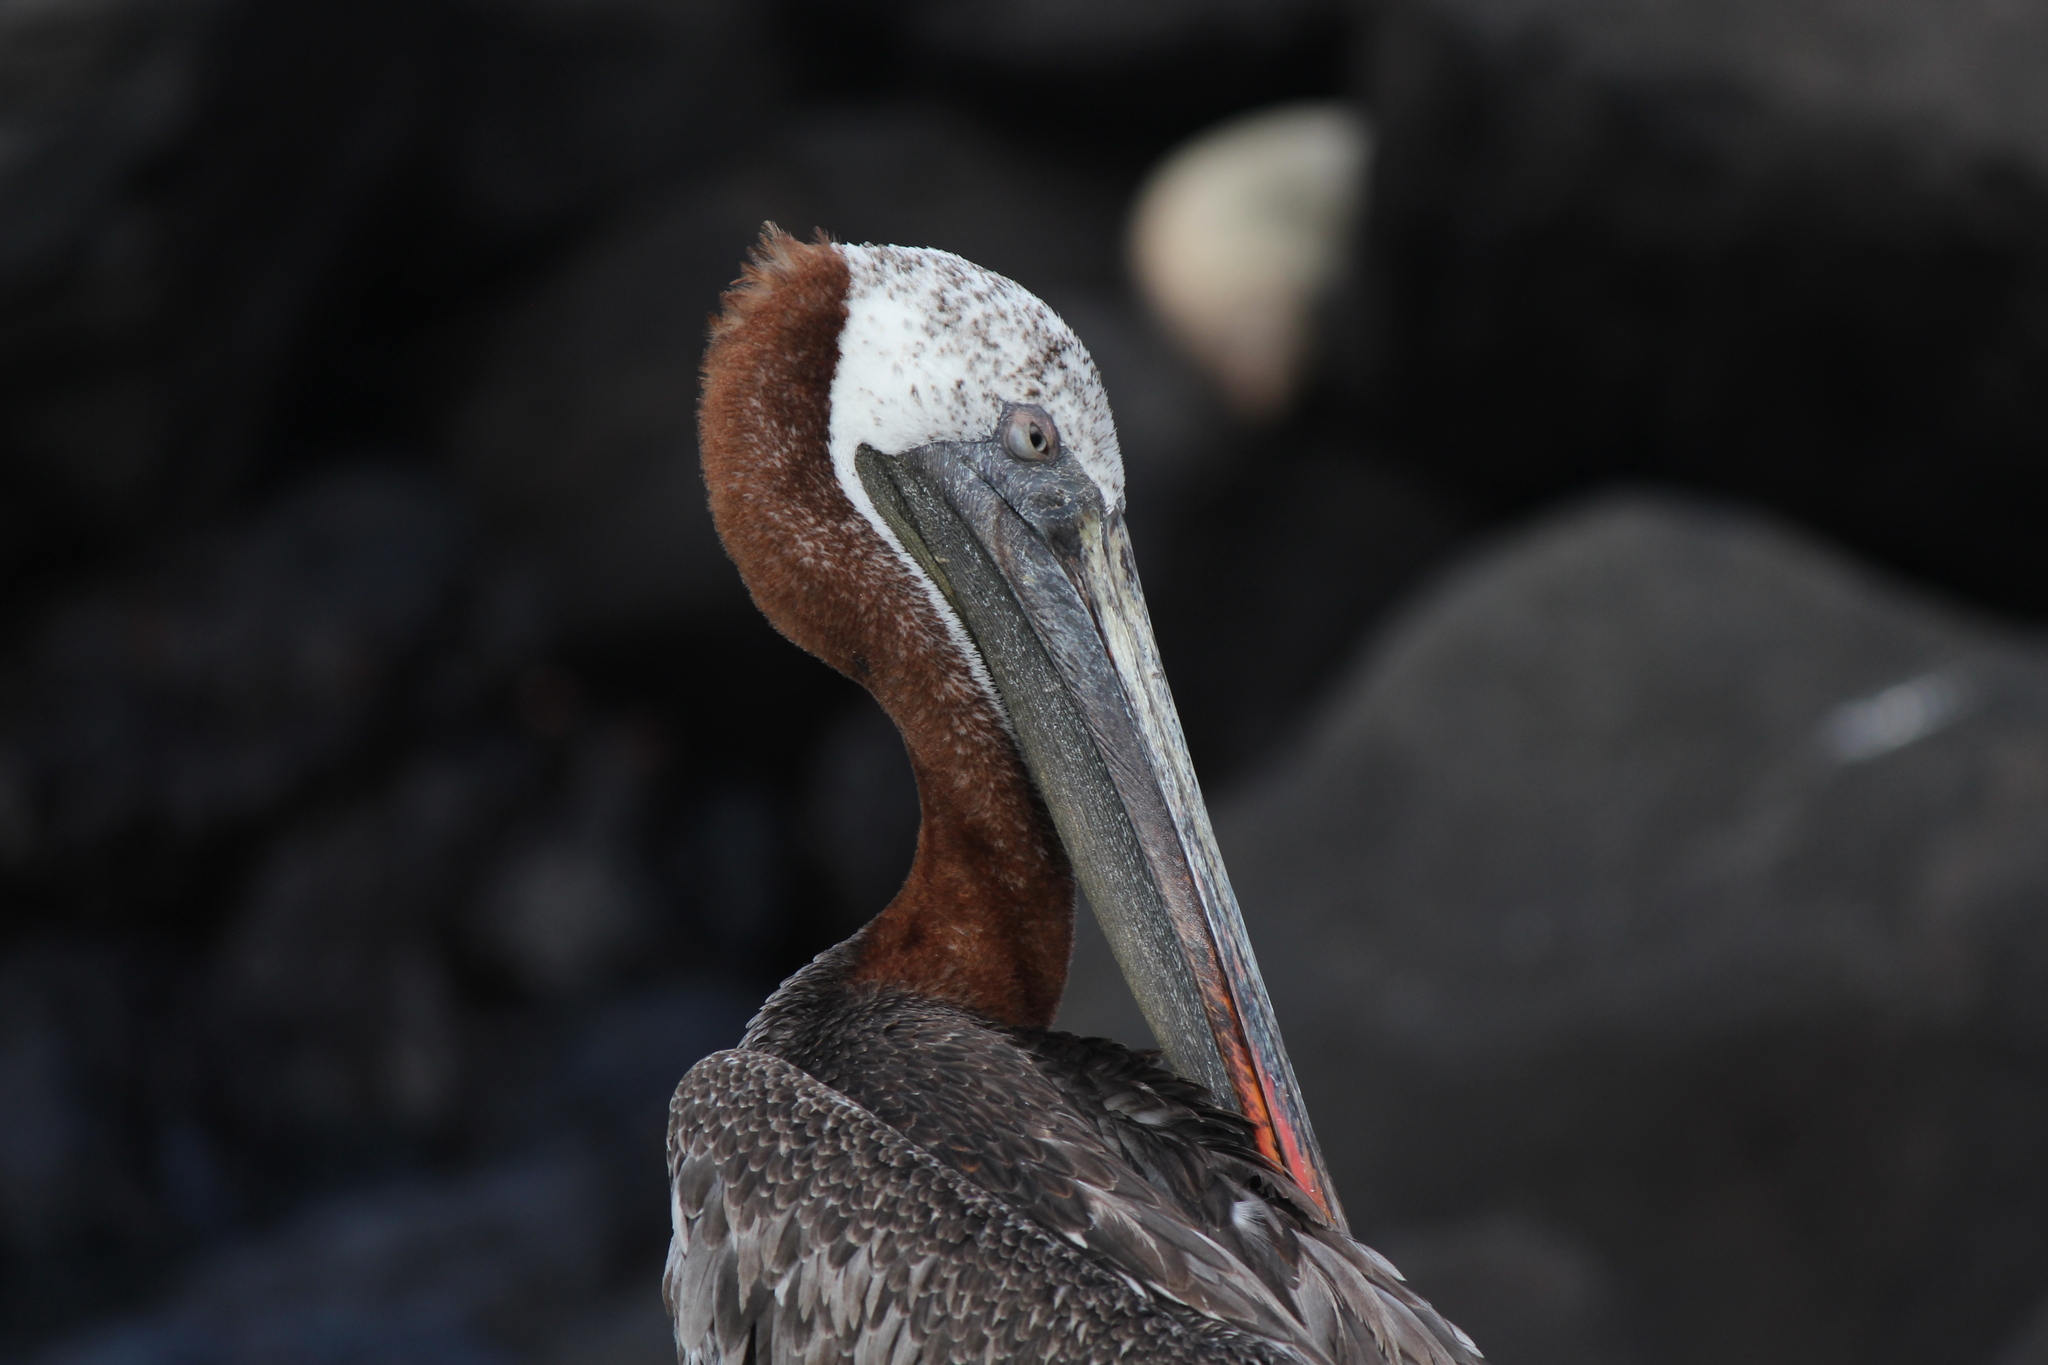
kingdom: Animalia
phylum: Chordata
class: Aves
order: Pelecaniformes
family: Pelecanidae
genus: Pelecanus
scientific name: Pelecanus occidentalis
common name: Brown pelican
